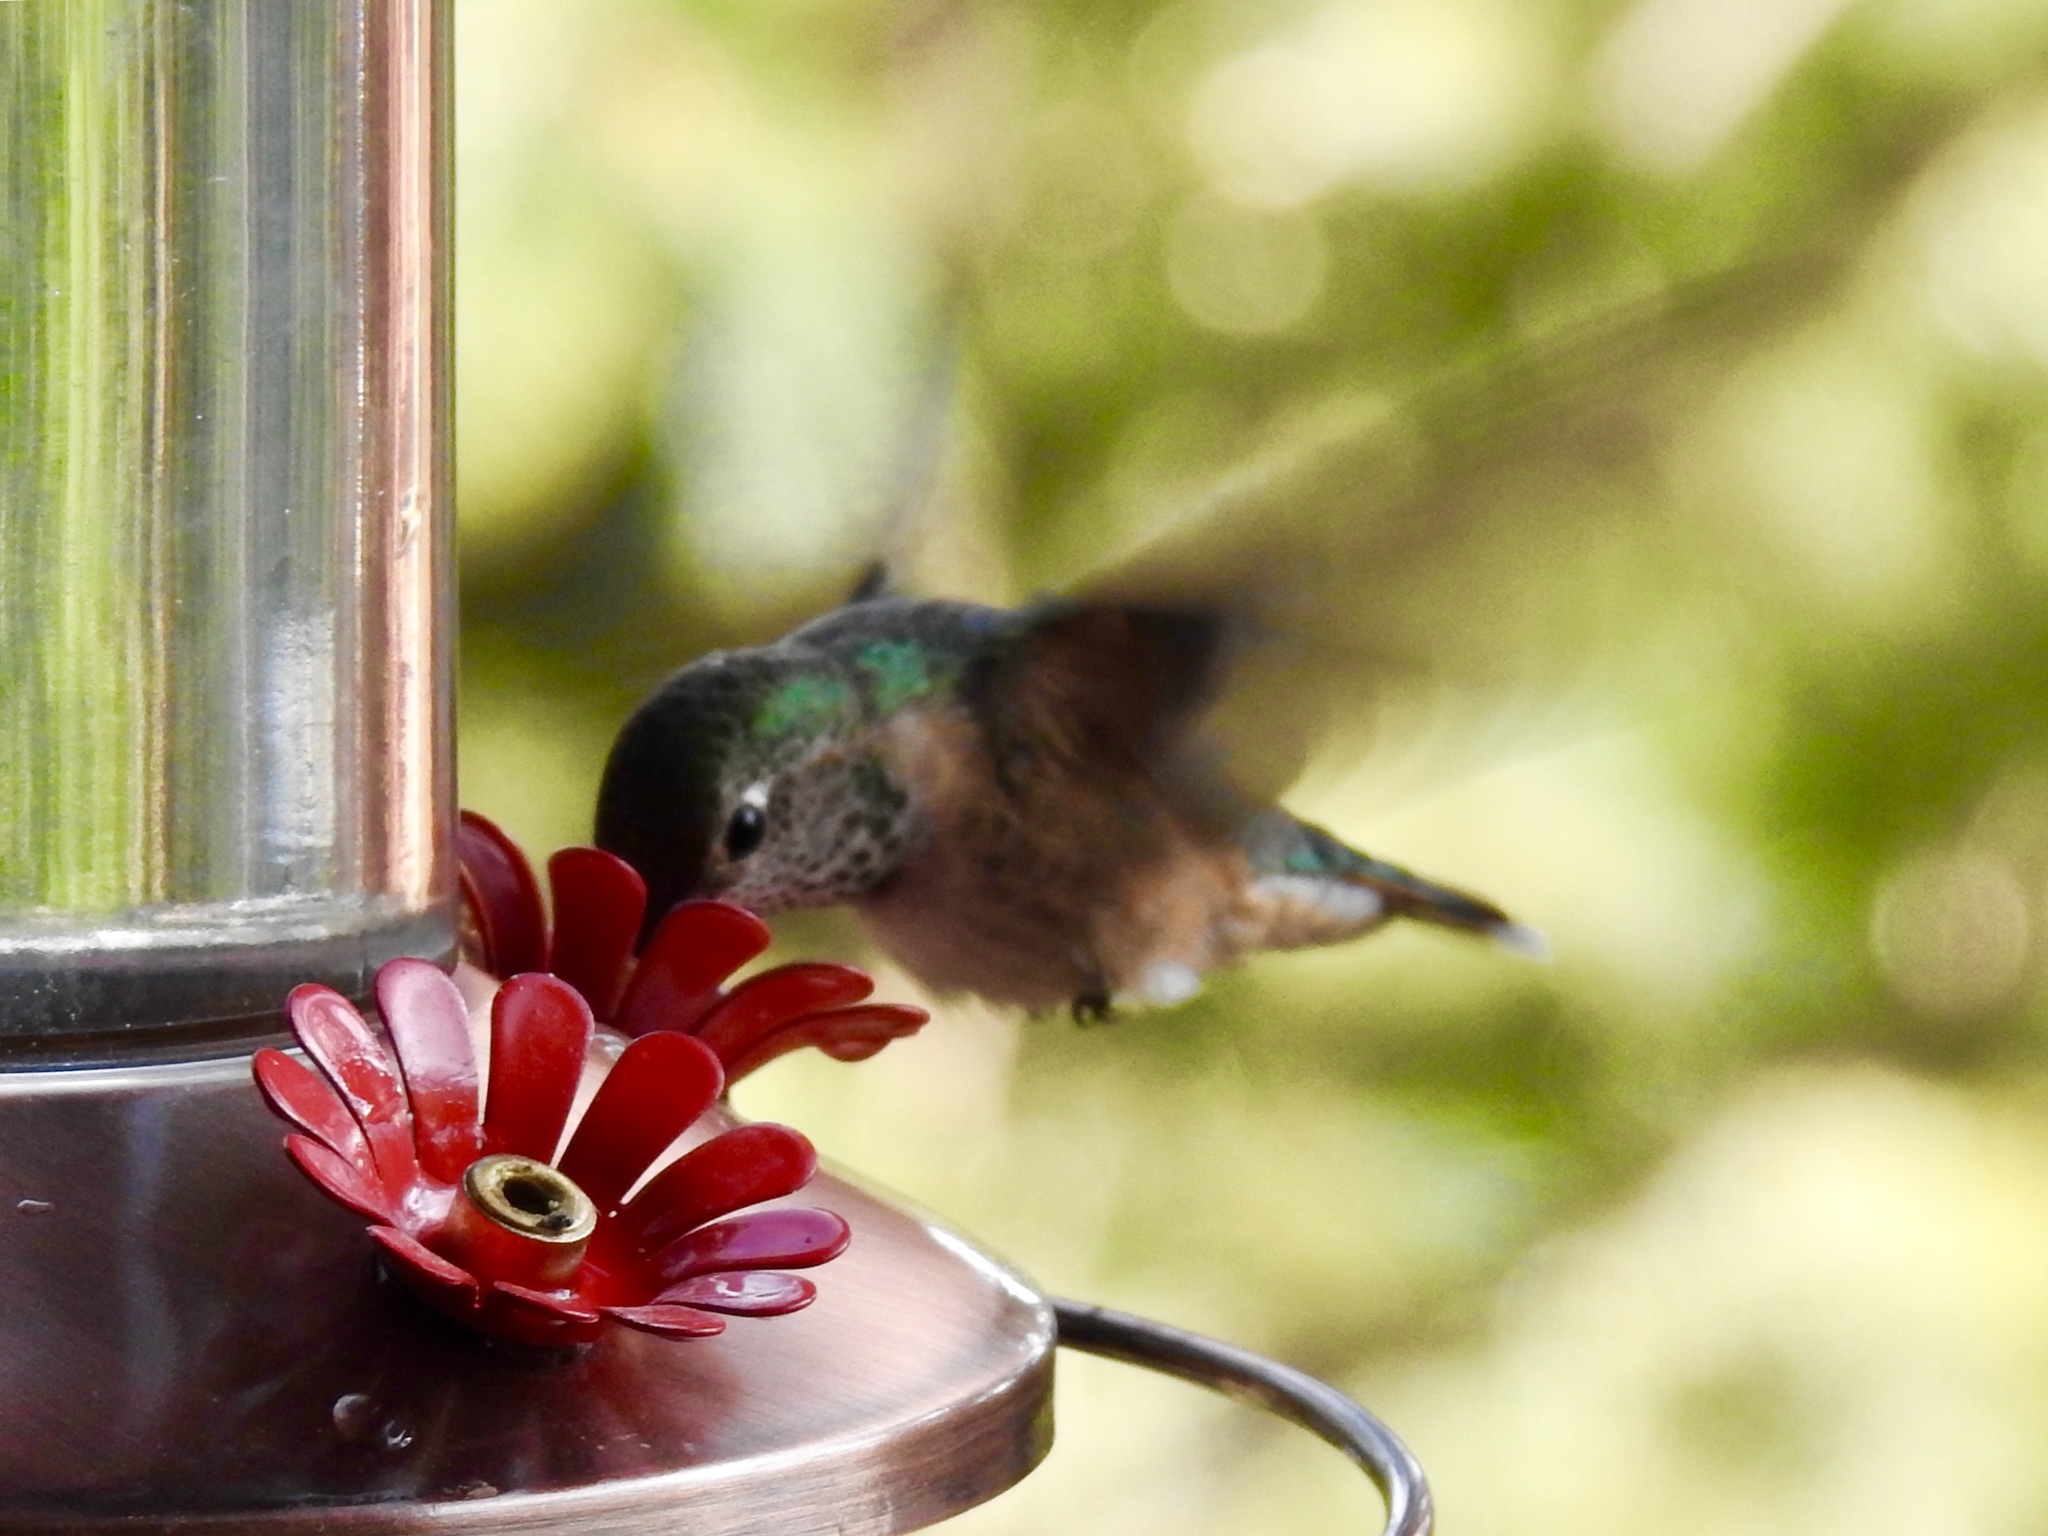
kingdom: Animalia
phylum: Chordata
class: Aves
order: Apodiformes
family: Trochilidae
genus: Selasphorus
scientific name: Selasphorus platycercus
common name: Broad-tailed hummingbird
